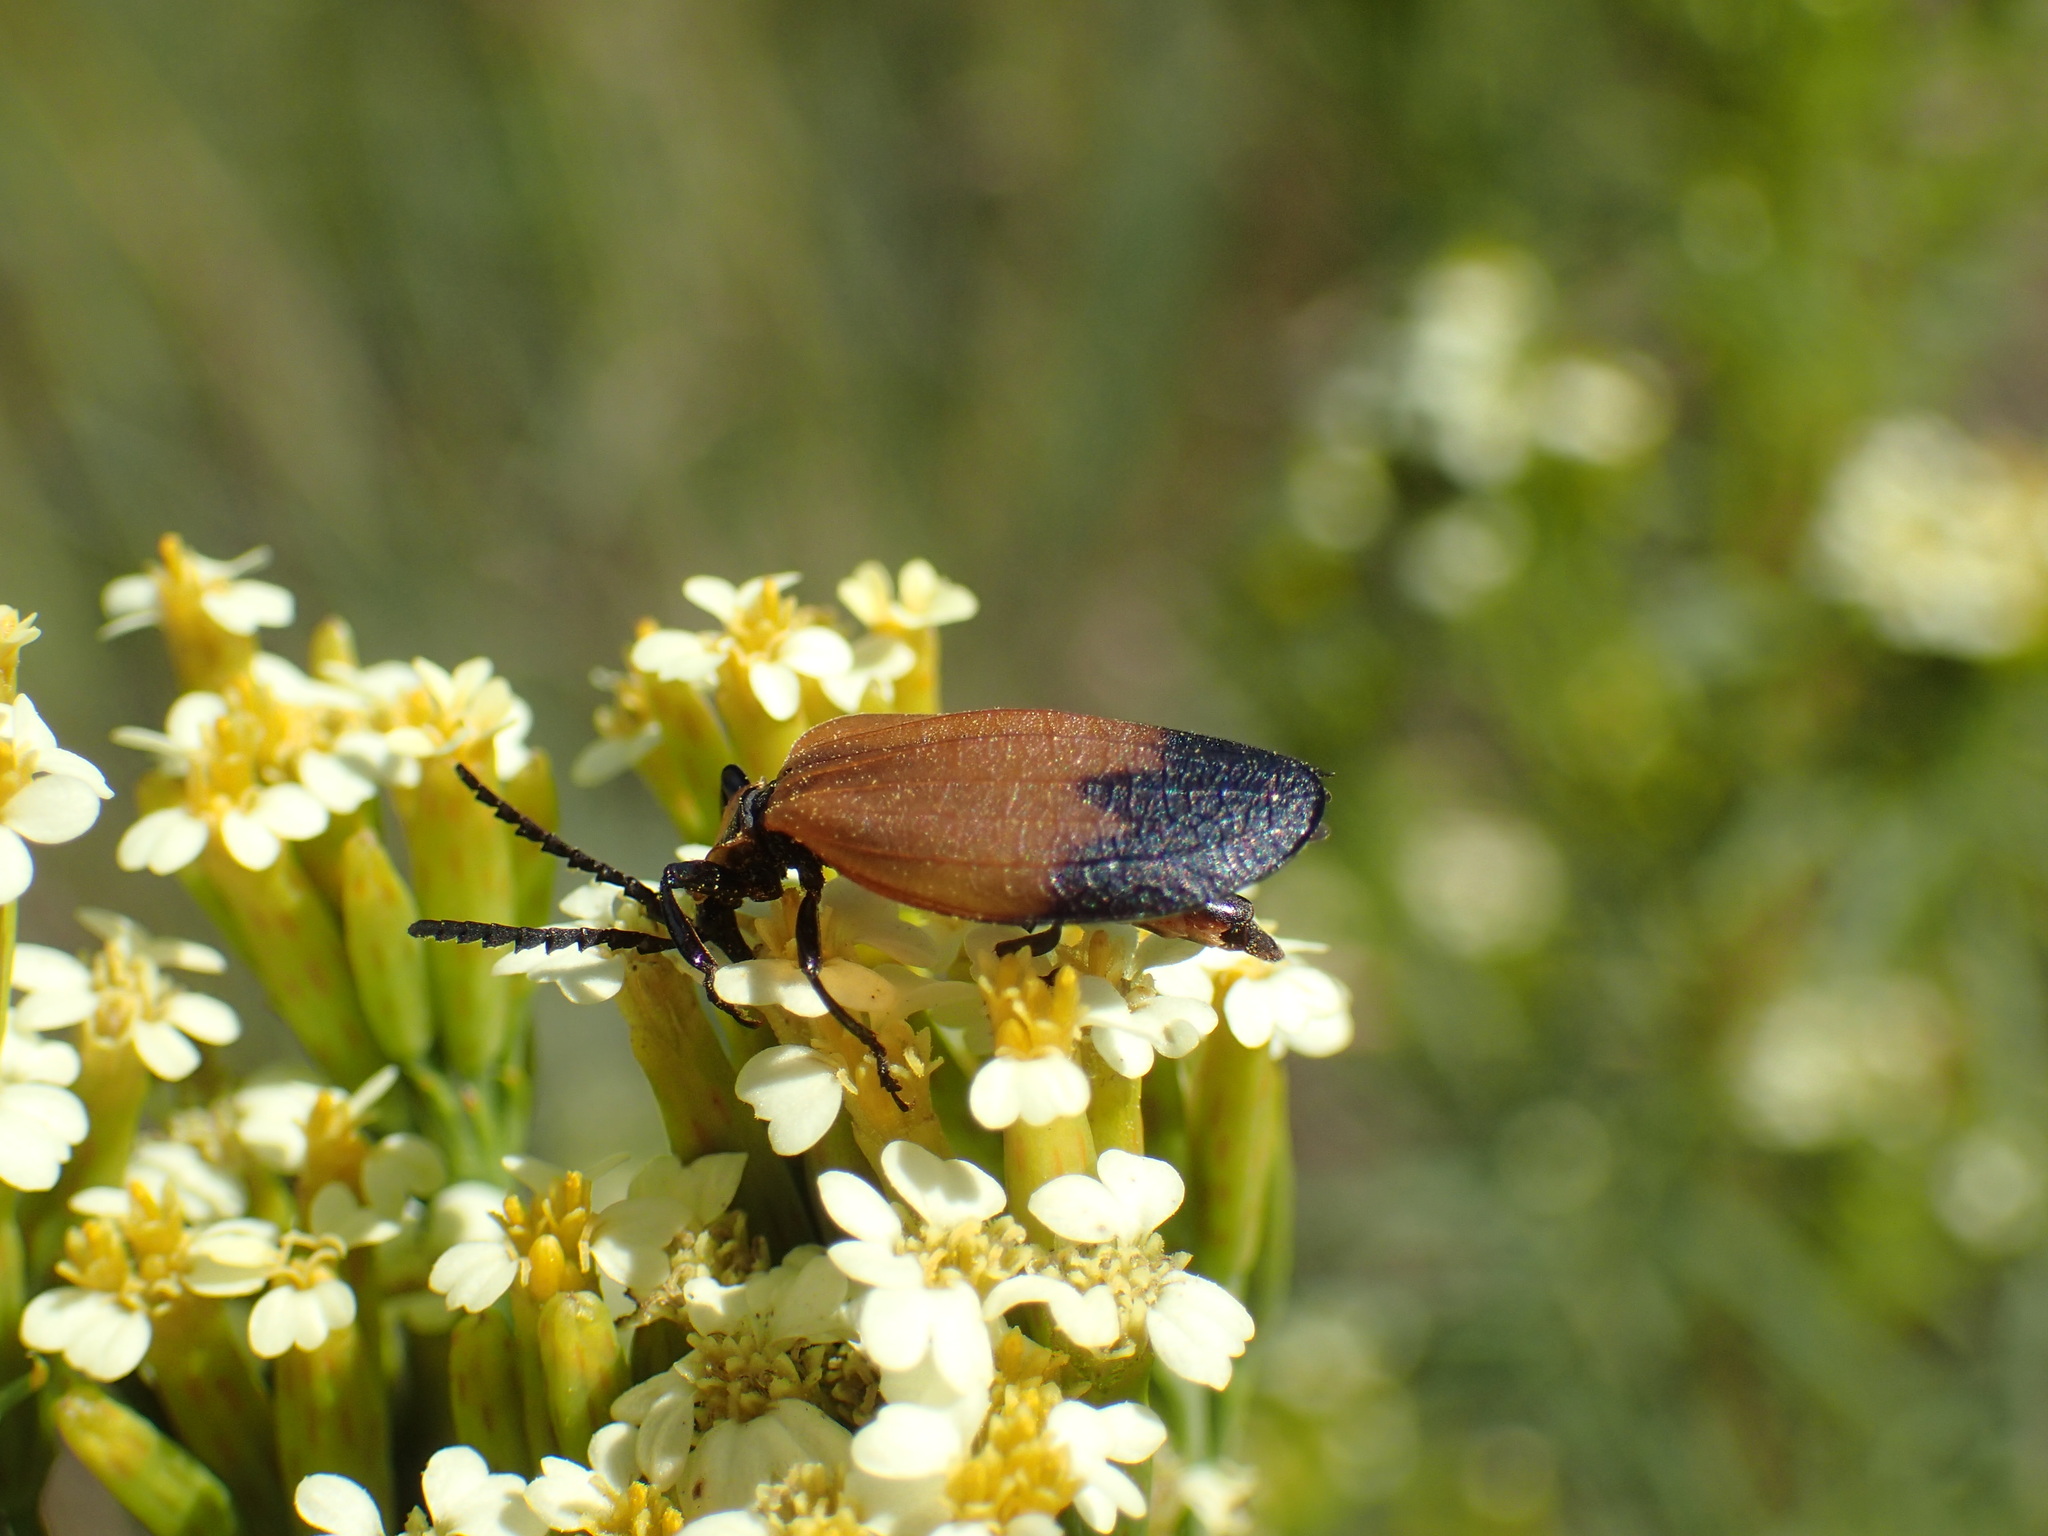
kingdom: Animalia
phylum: Arthropoda
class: Insecta
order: Coleoptera
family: Lycidae
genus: Lycus
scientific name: Lycus
